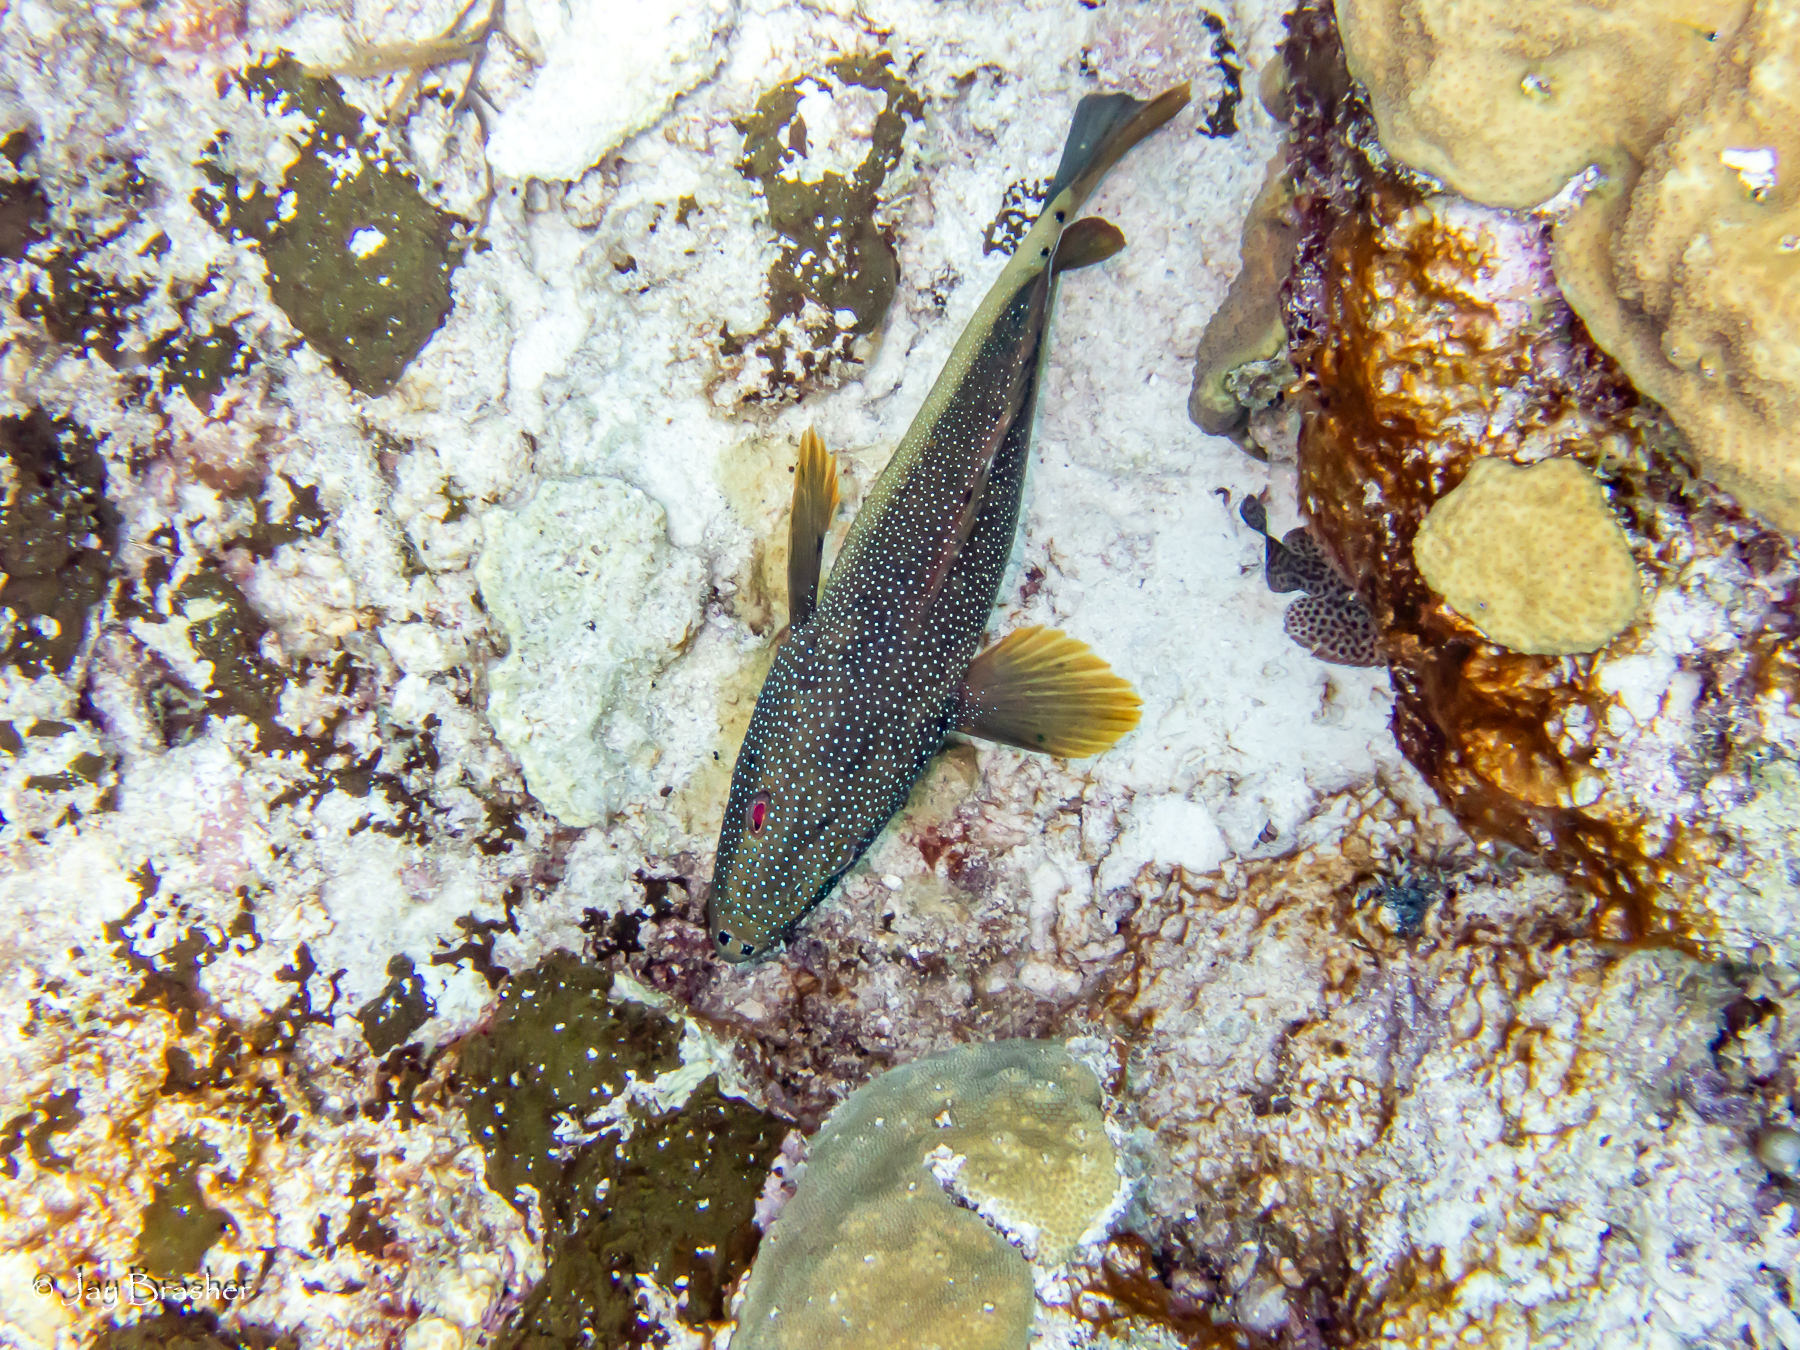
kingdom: Animalia
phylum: Chordata
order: Perciformes
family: Serranidae
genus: Cephalopholis
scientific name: Cephalopholis fulva
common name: Butterfish
